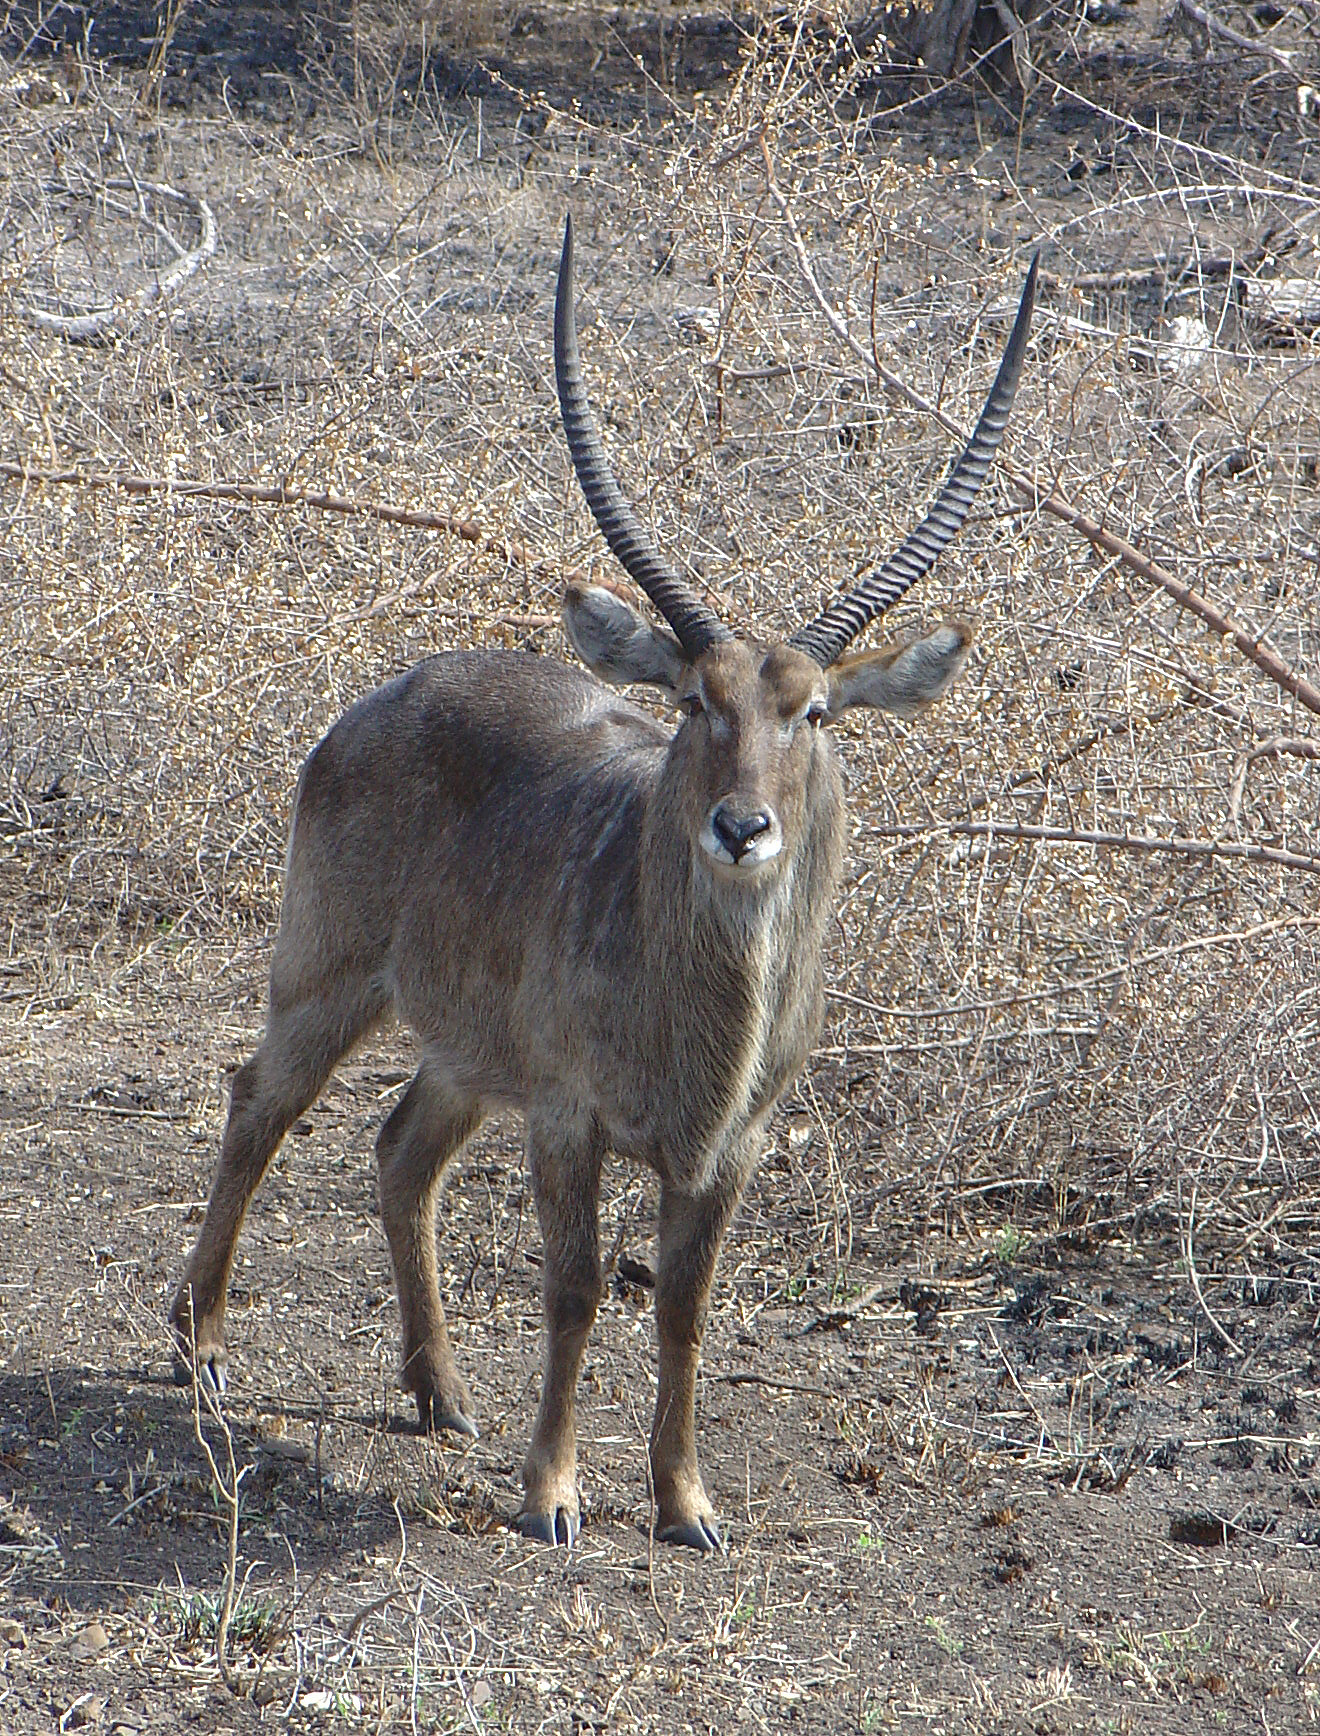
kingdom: Animalia
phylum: Chordata
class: Mammalia
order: Artiodactyla
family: Bovidae
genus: Kobus
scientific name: Kobus ellipsiprymnus
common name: Waterbuck
